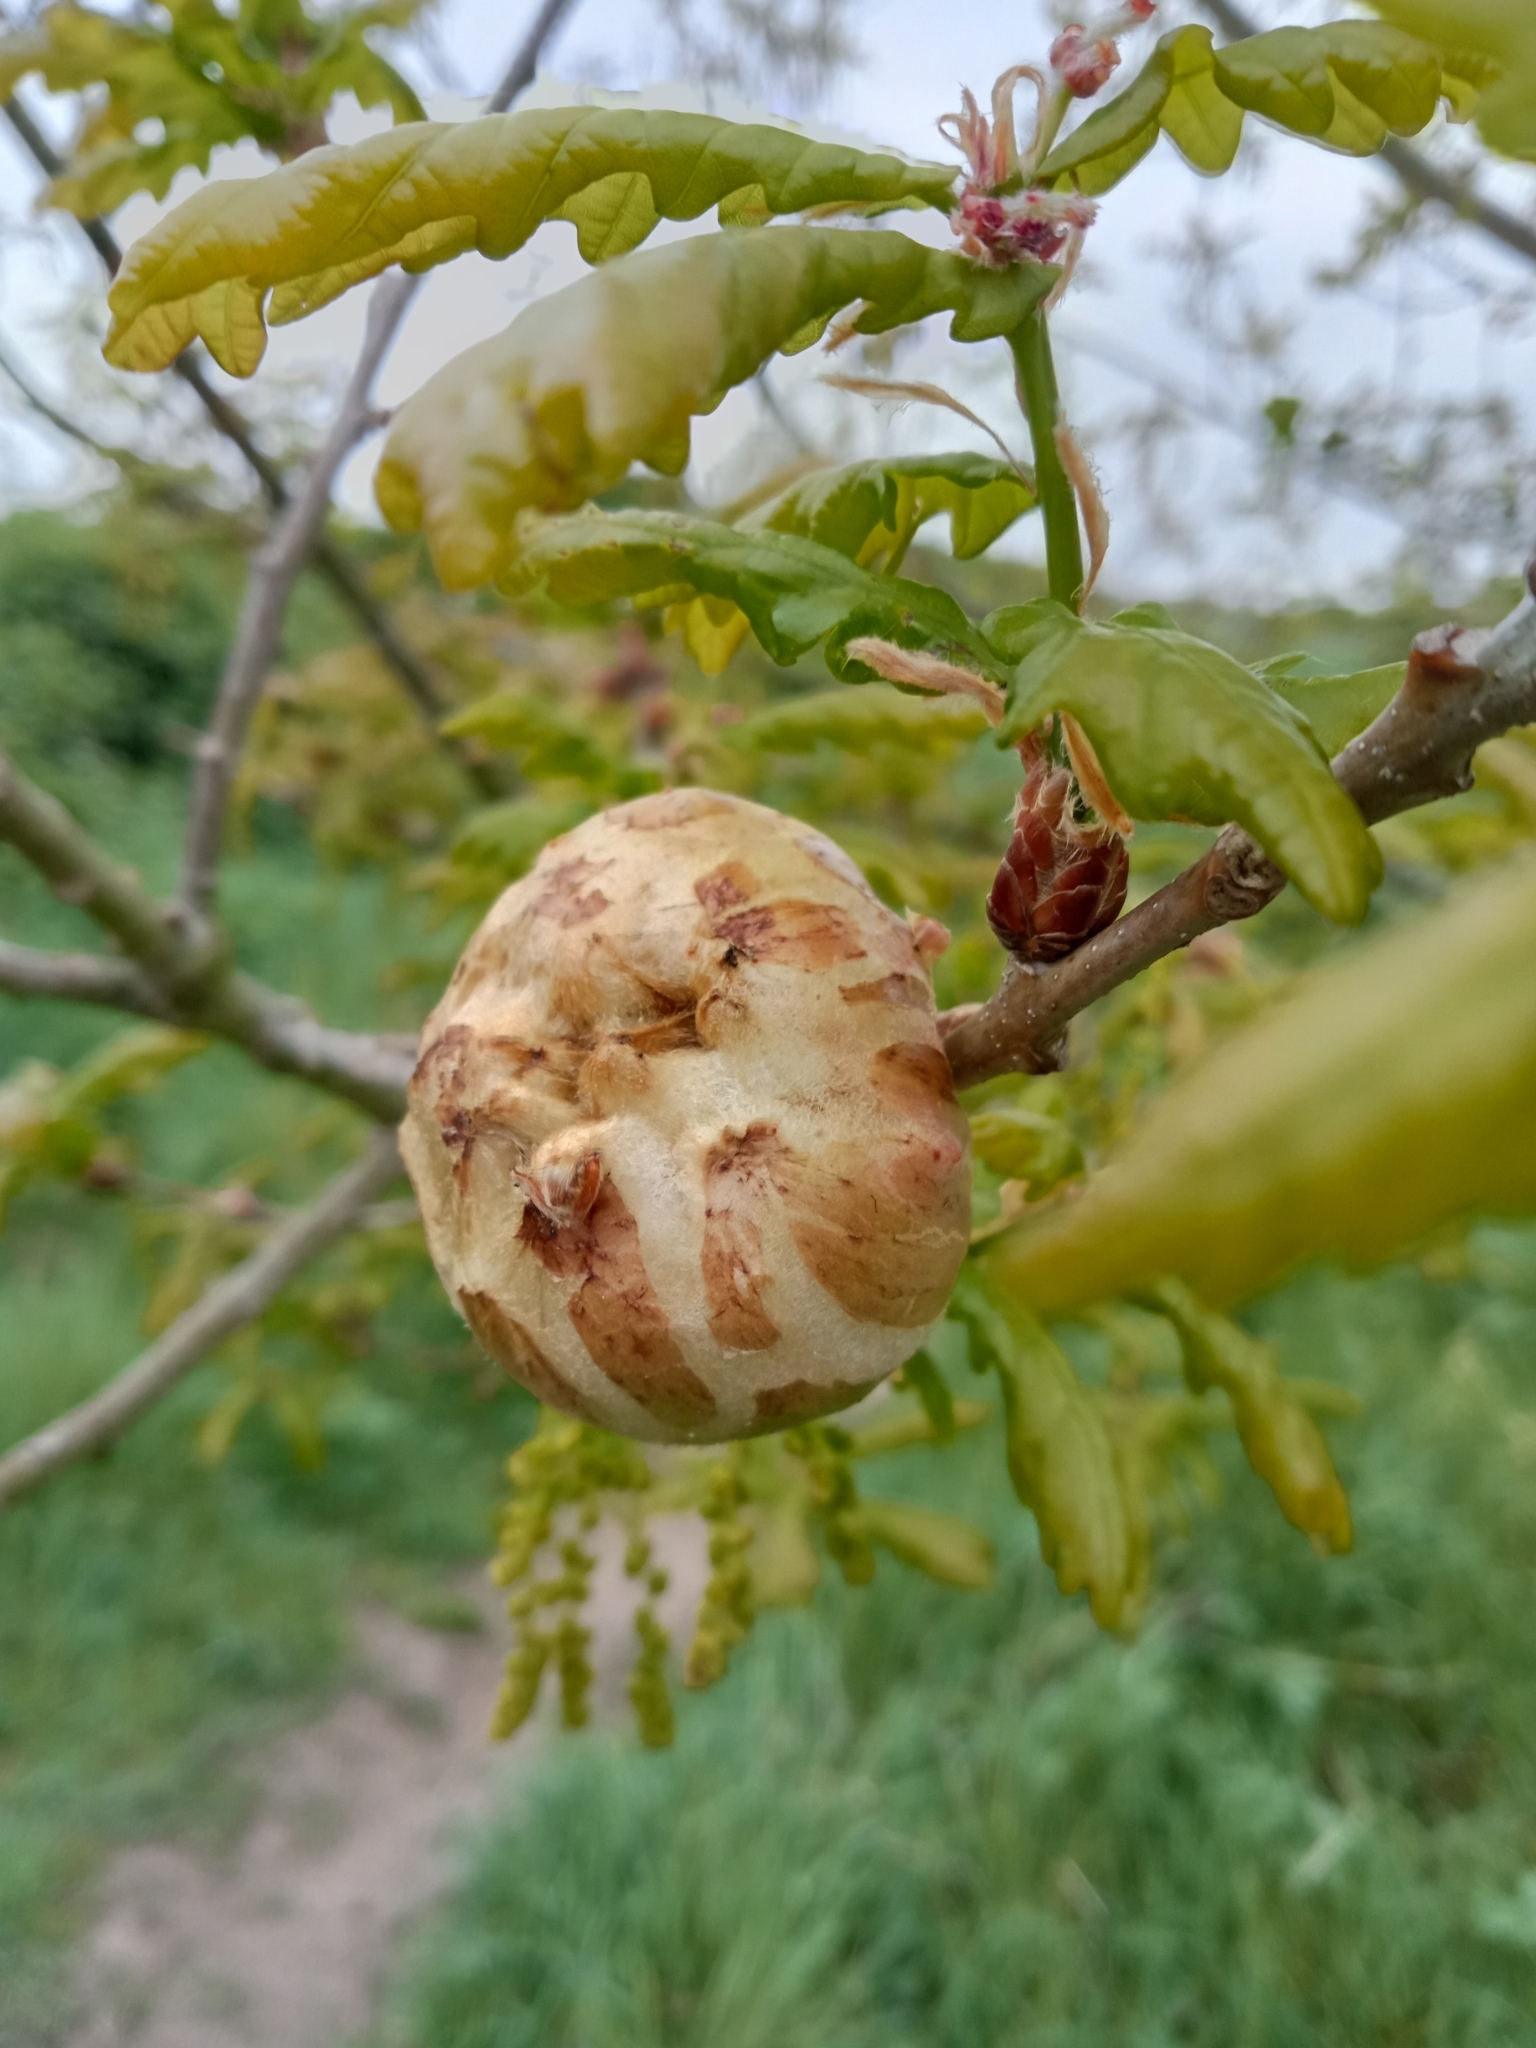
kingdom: Animalia
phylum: Arthropoda
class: Insecta
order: Hymenoptera
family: Cynipidae
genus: Biorhiza
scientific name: Biorhiza pallida
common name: Oak apple
